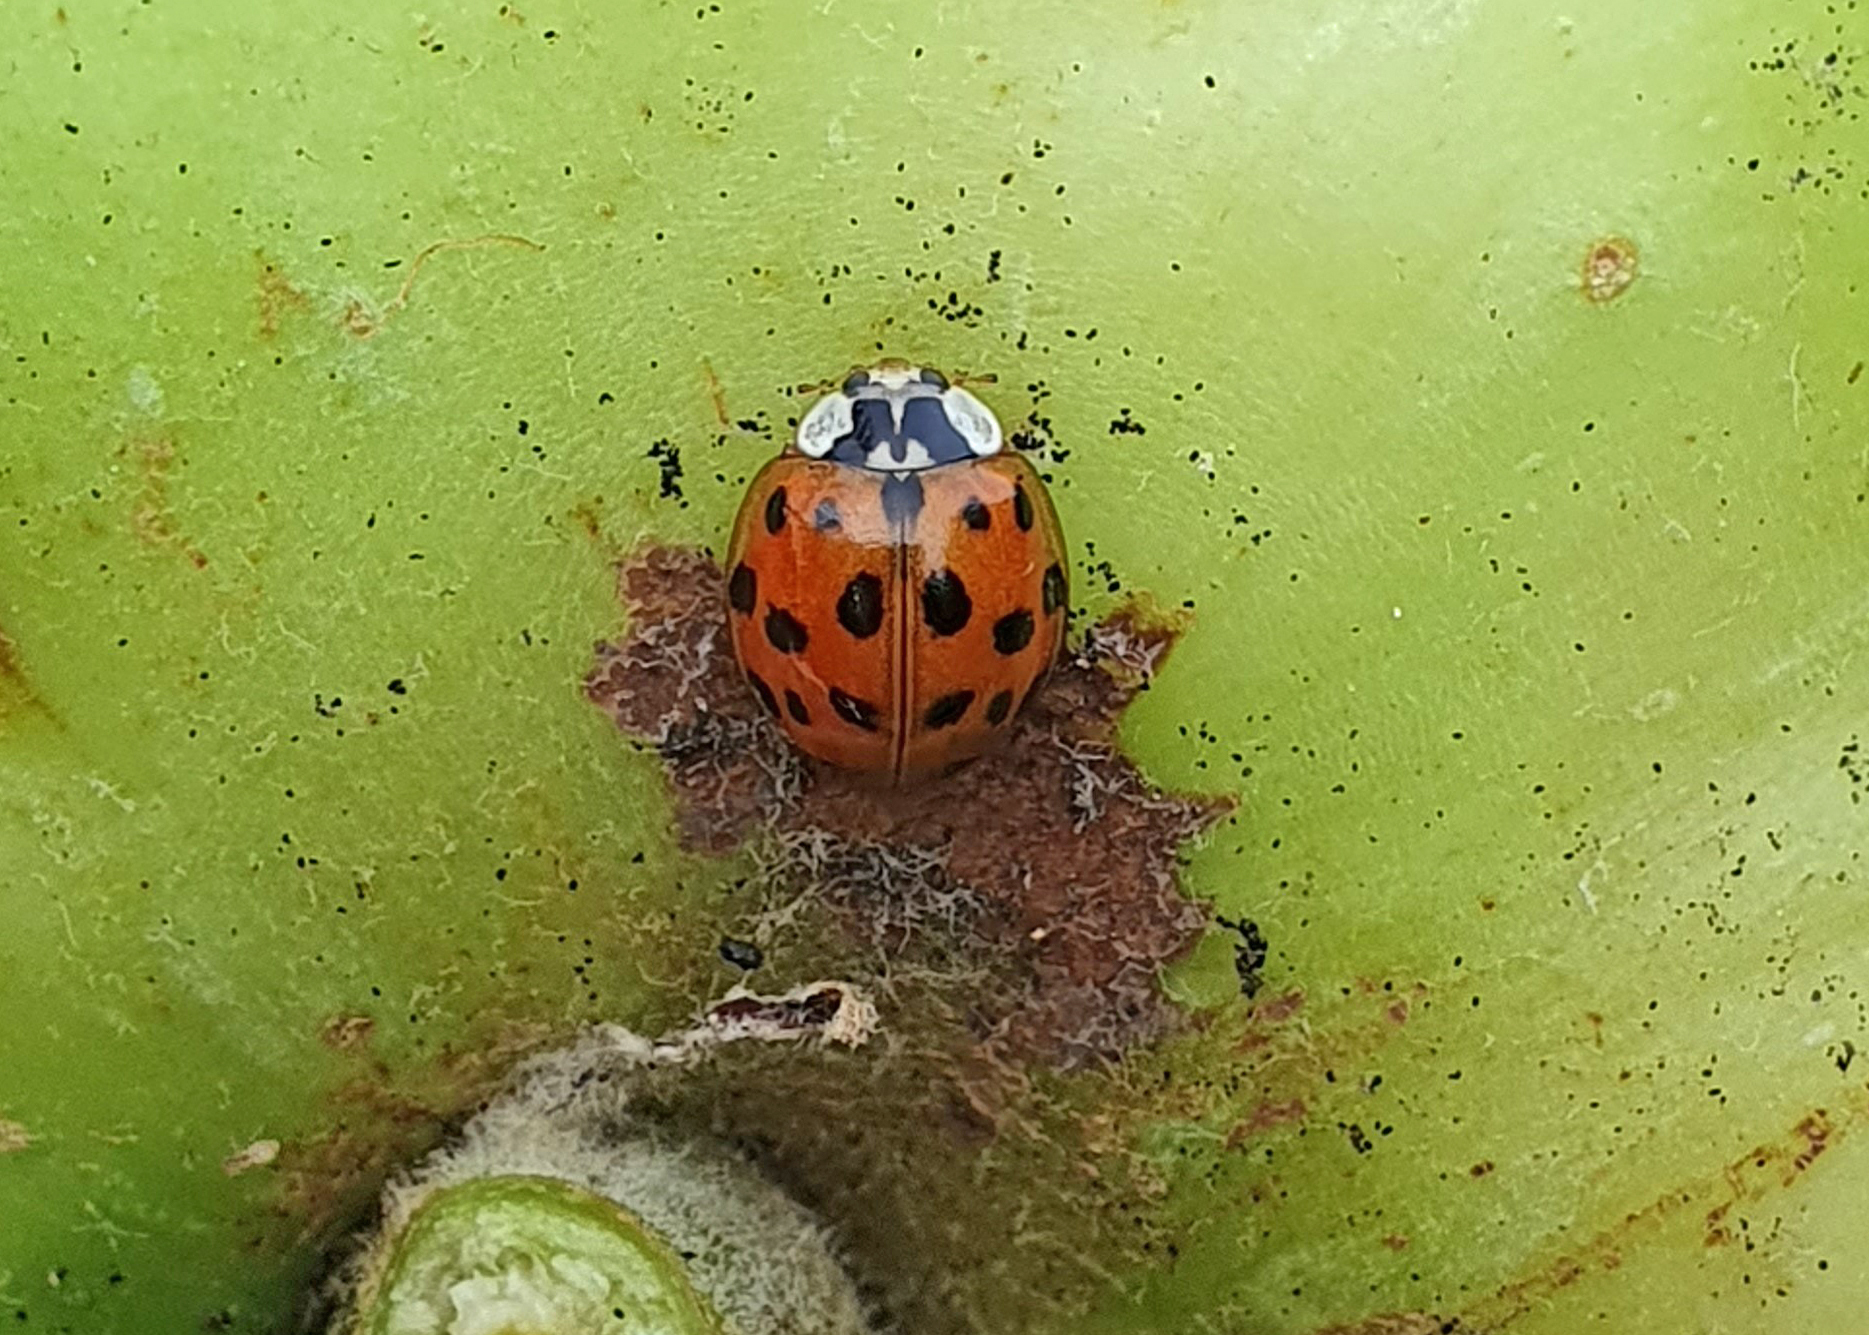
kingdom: Animalia
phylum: Arthropoda
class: Insecta
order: Coleoptera
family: Coccinellidae
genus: Harmonia
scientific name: Harmonia axyridis
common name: Harlequin ladybird
